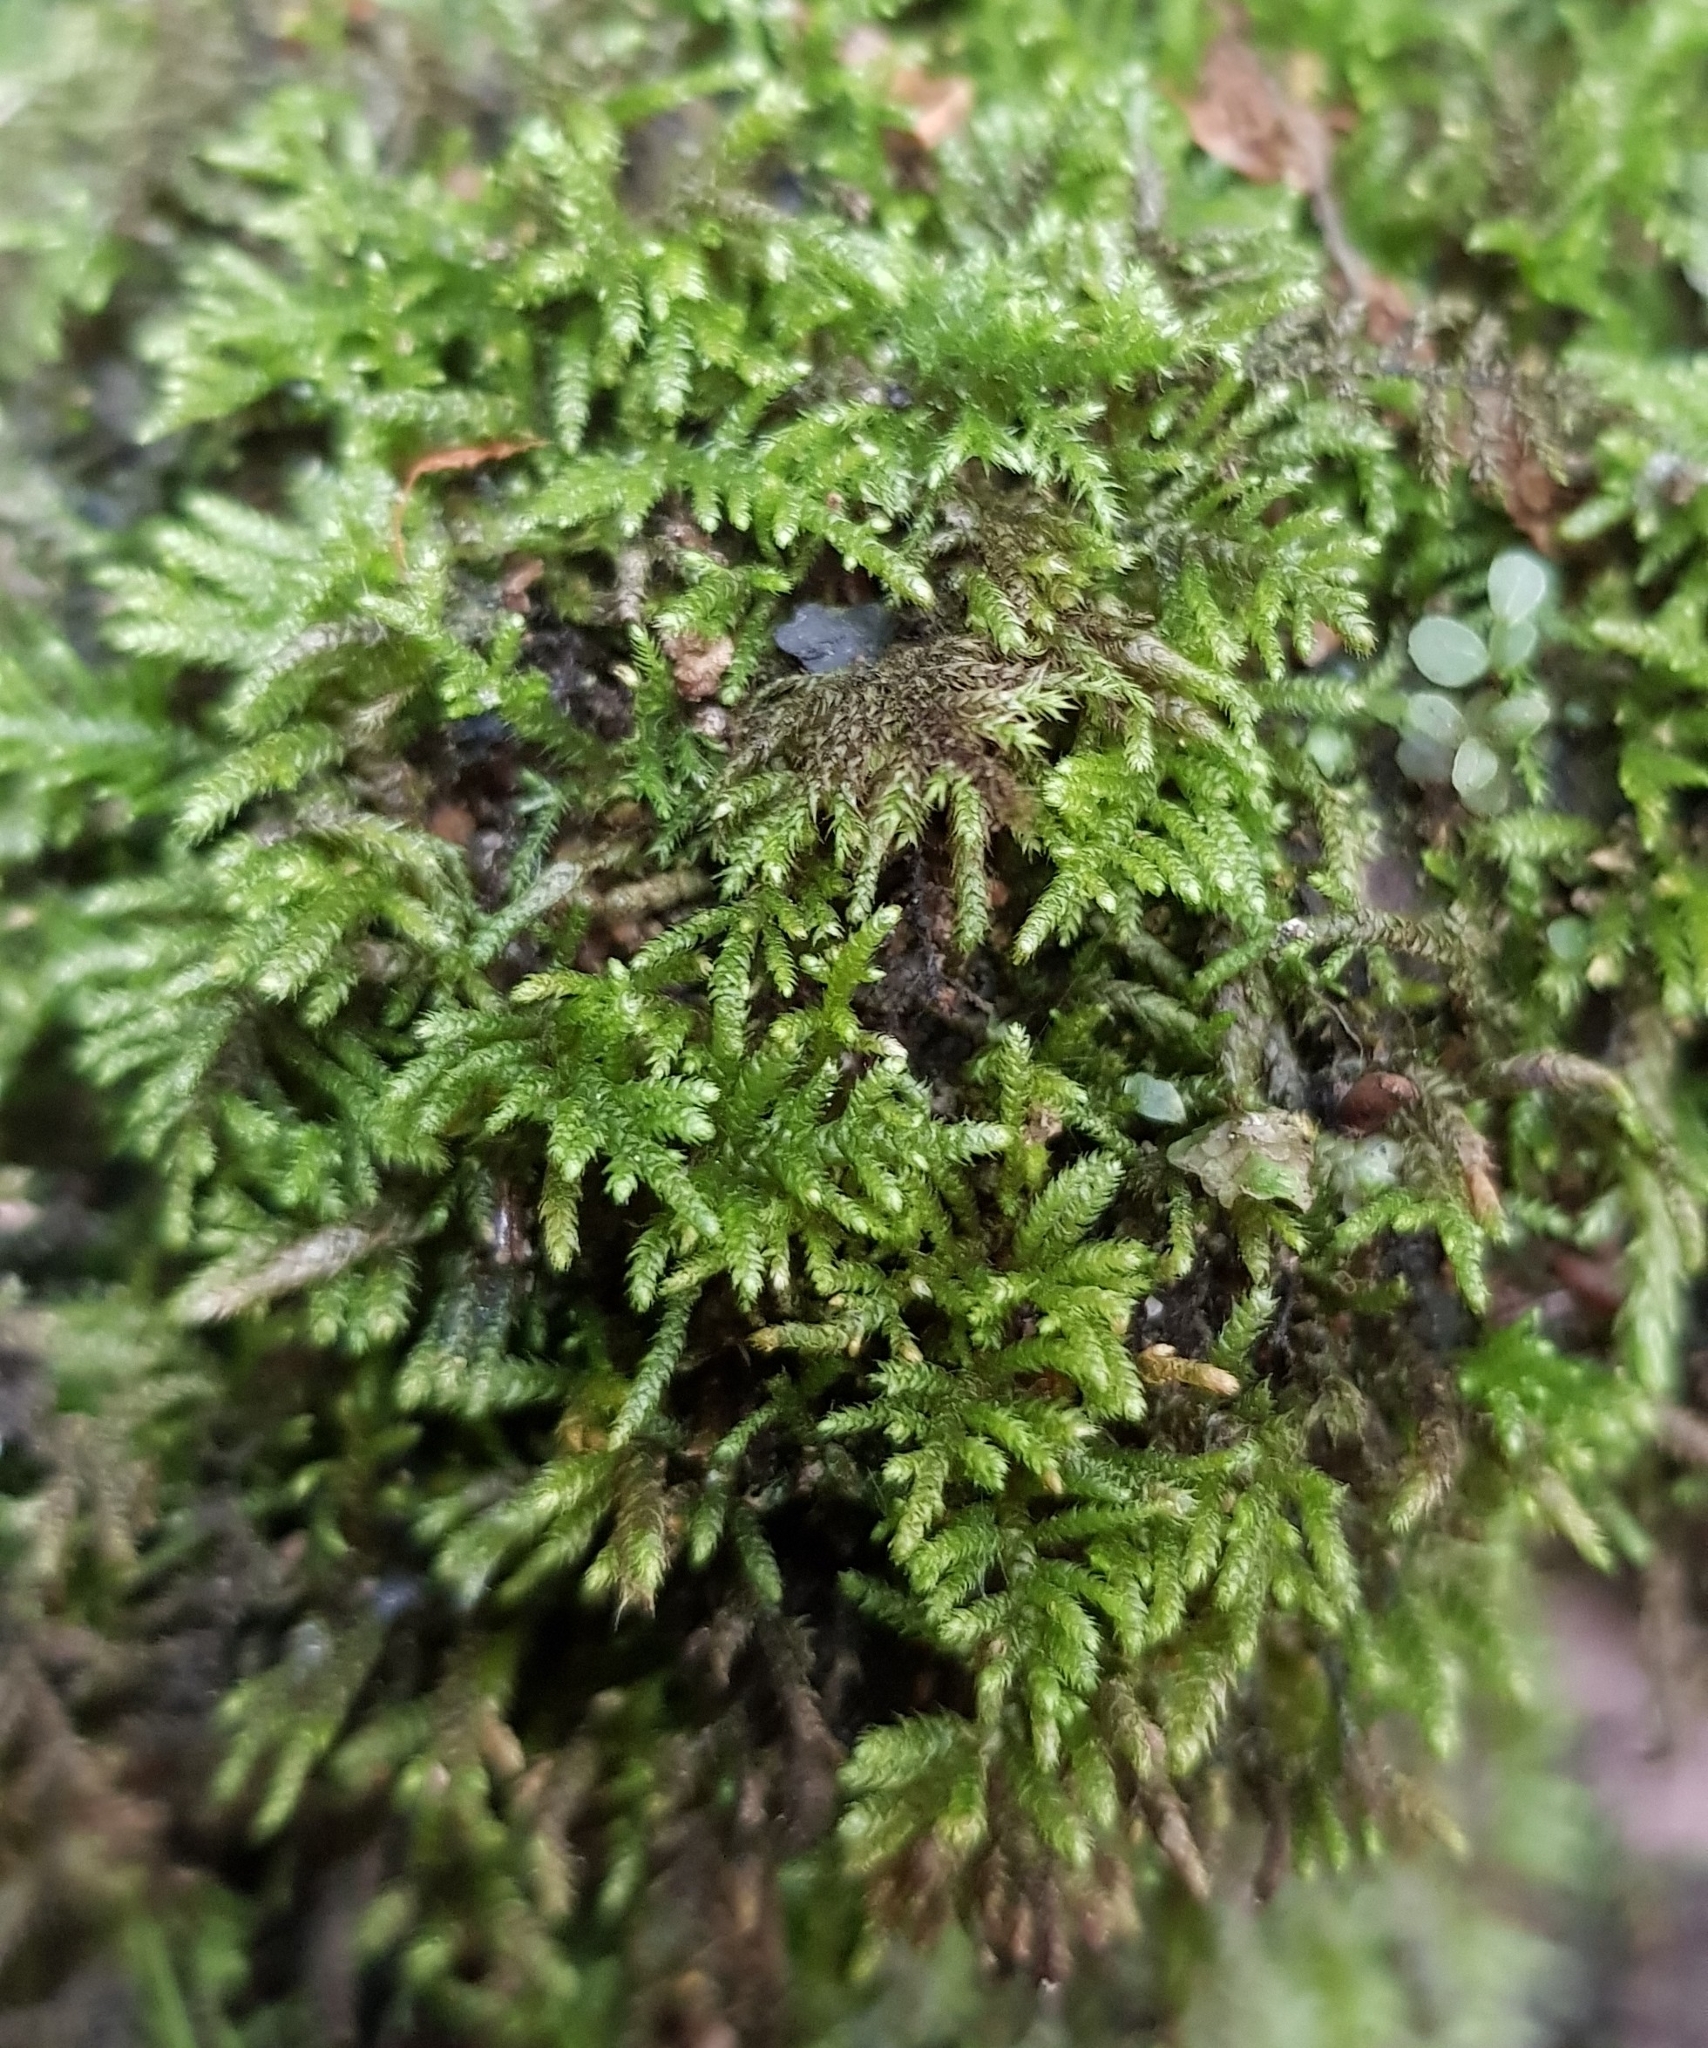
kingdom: Plantae
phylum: Bryophyta
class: Bryopsida
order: Hypnales
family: Myuriaceae
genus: Hyocomium
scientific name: Hyocomium armoricum
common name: Flagellate feather-moss
